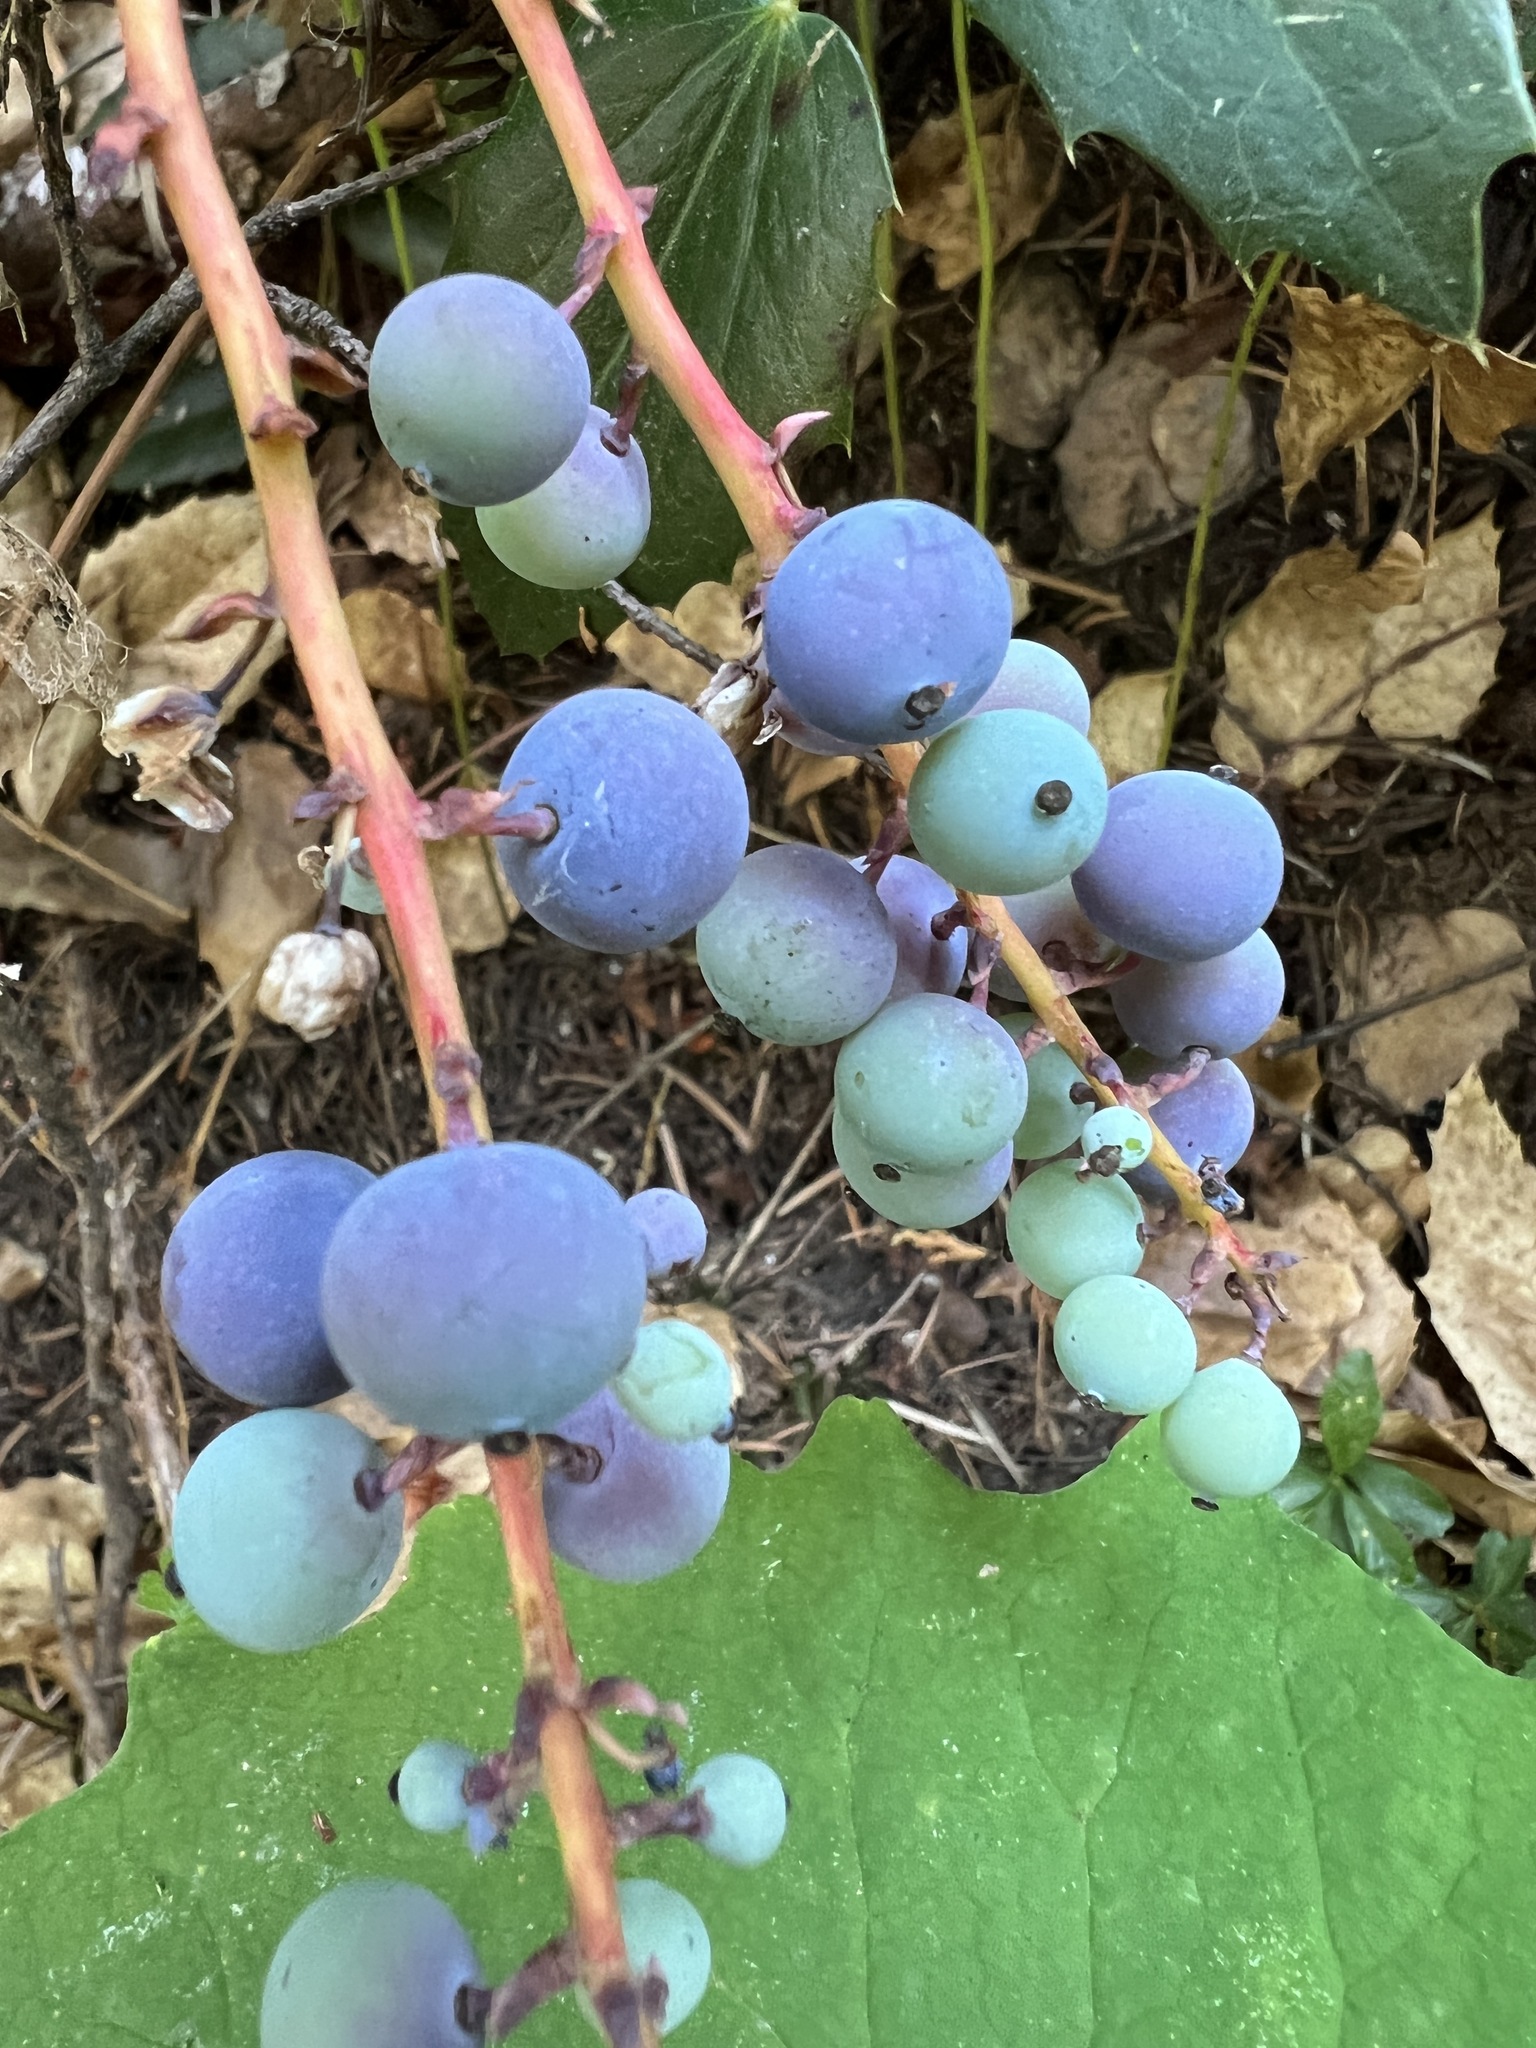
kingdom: Plantae
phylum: Tracheophyta
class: Magnoliopsida
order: Ranunculales
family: Berberidaceae
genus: Mahonia
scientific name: Mahonia nervosa
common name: Cascade oregon-grape
